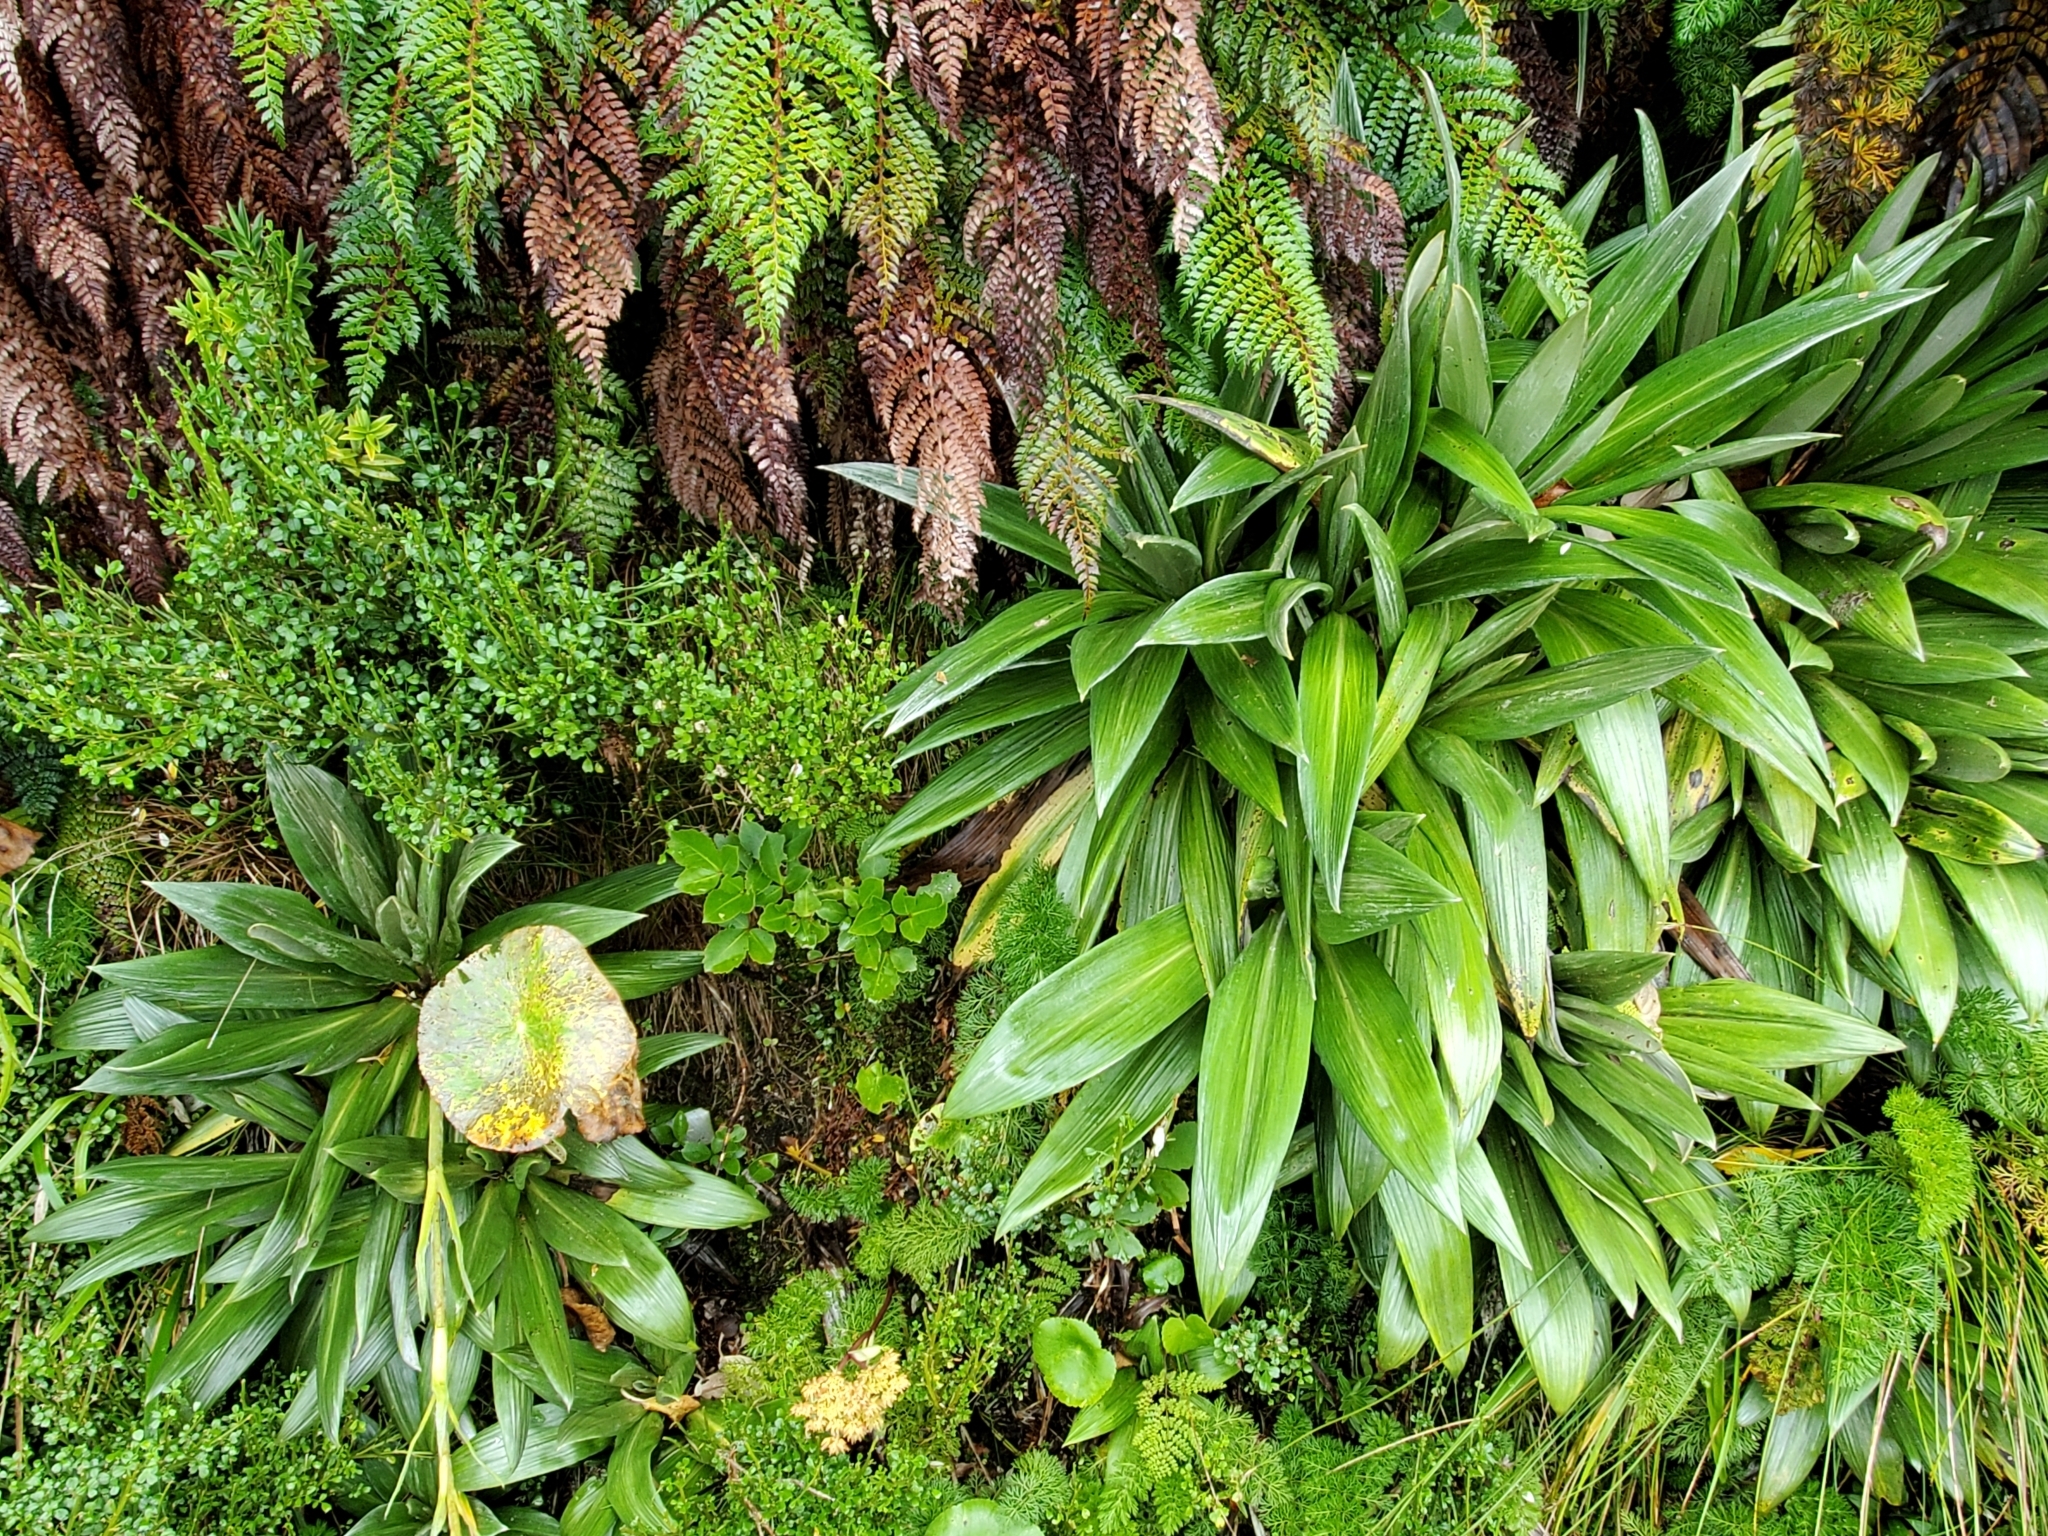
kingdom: Plantae
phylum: Tracheophyta
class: Magnoliopsida
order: Asterales
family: Asteraceae
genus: Celmisia
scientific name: Celmisia semicordata
